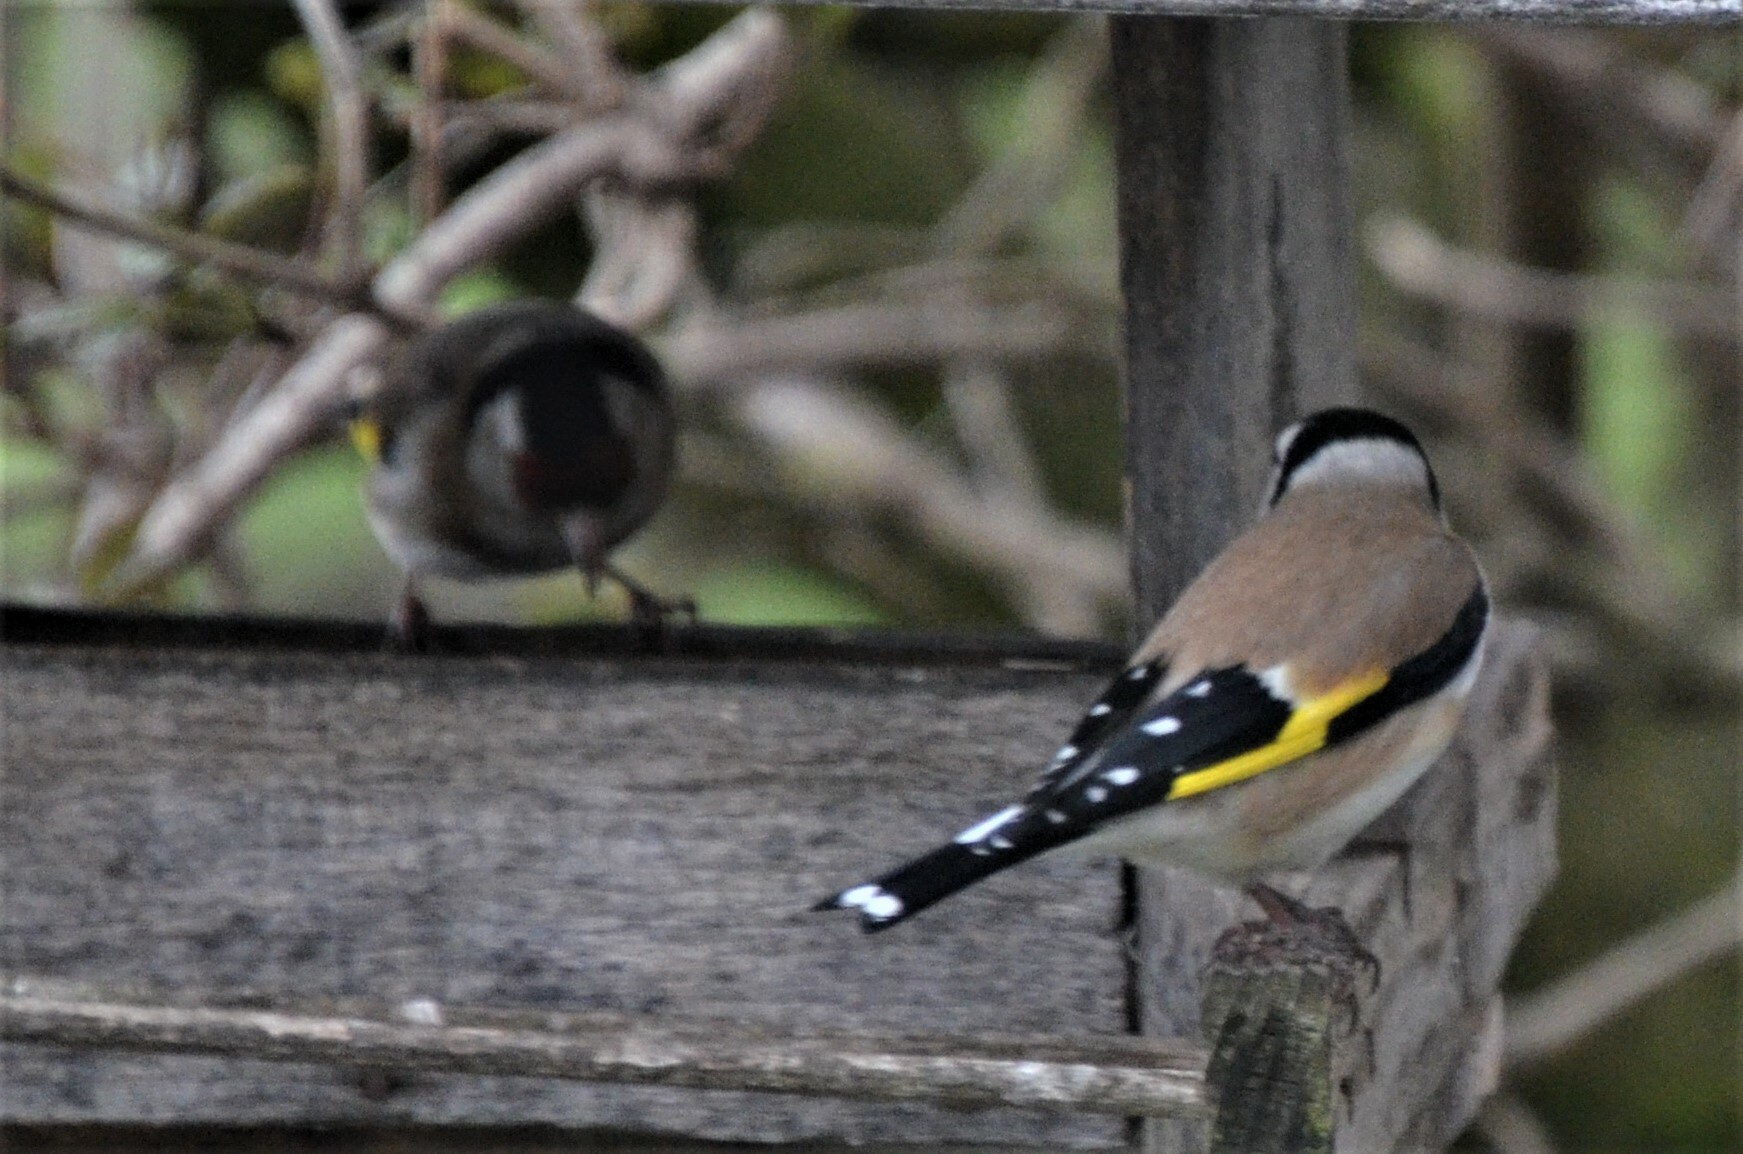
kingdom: Animalia
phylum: Chordata
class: Aves
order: Passeriformes
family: Fringillidae
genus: Carduelis
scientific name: Carduelis carduelis
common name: European goldfinch
